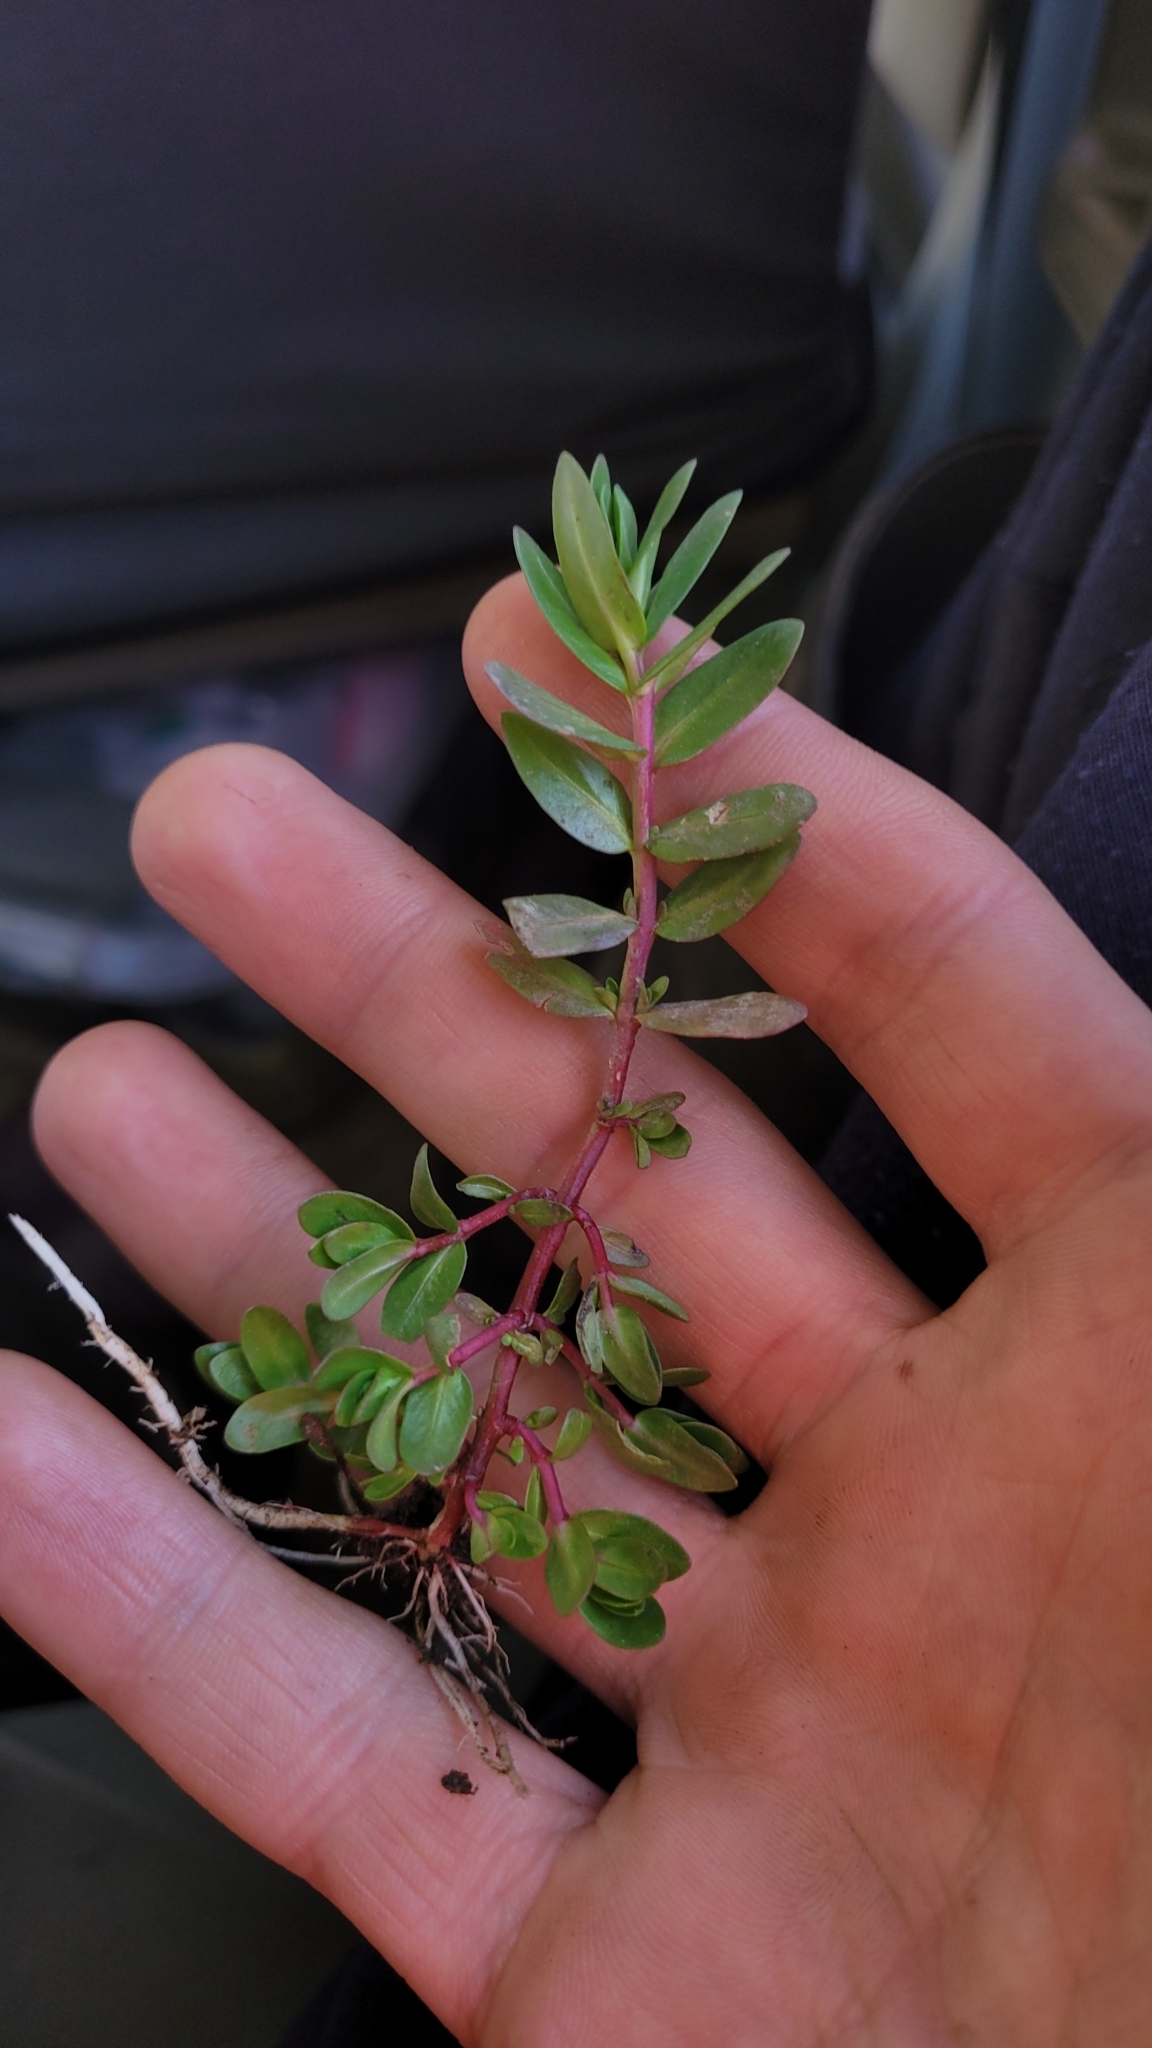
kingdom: Plantae
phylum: Tracheophyta
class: Magnoliopsida
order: Myrtales
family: Lythraceae
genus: Lythrum
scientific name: Lythrum hyssopifolia
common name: Grass-poly
